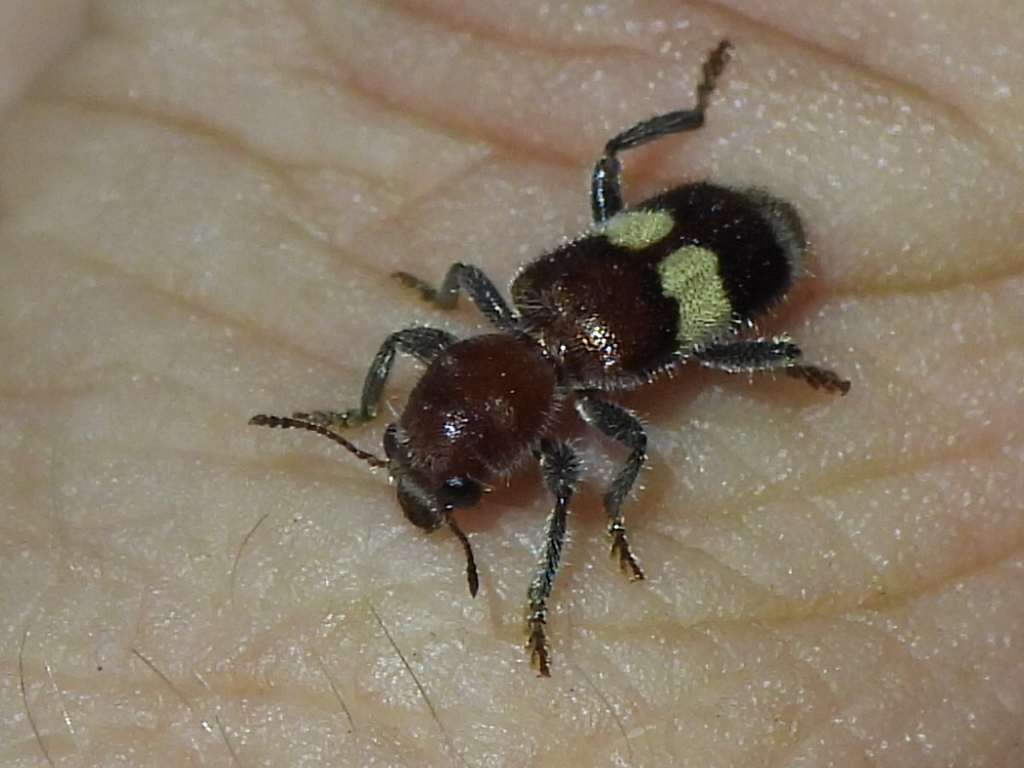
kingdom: Animalia
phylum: Arthropoda
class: Insecta
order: Coleoptera
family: Cleridae
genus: Enoclerus
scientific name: Enoclerus quadrisignatus
